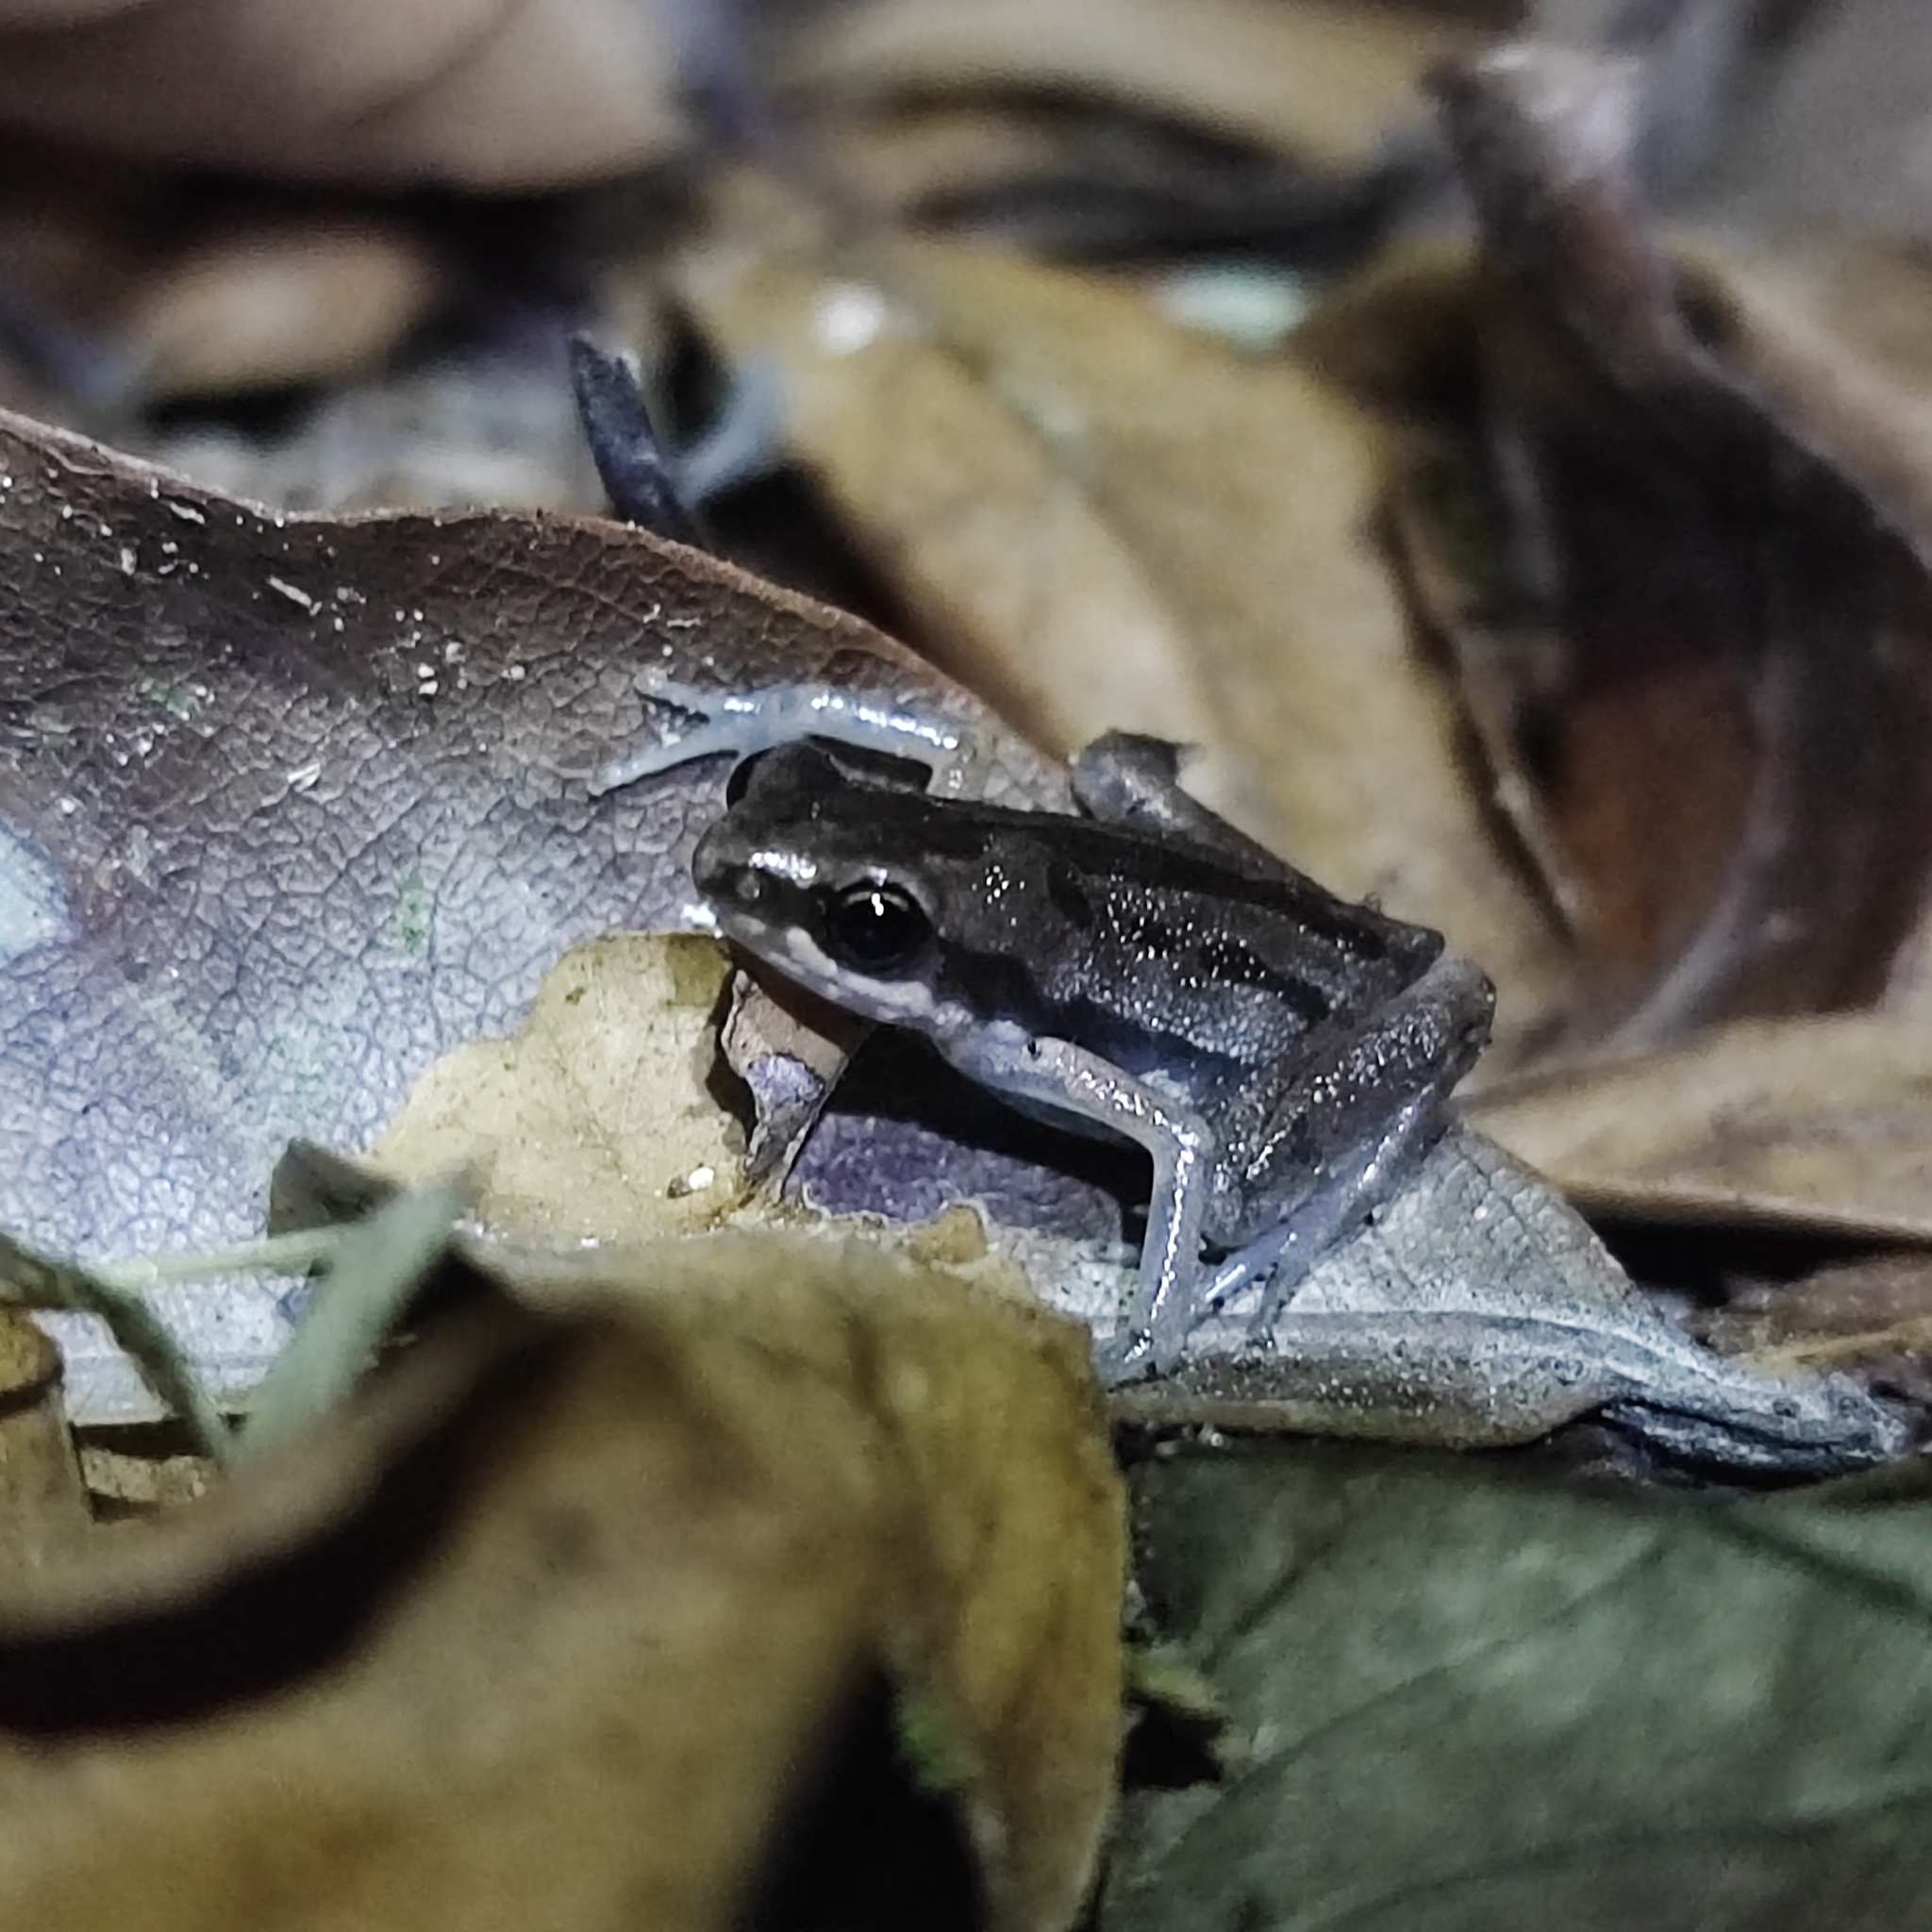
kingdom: Animalia
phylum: Chordata
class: Amphibia
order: Anura
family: Microhylidae
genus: Micryletta
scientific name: Micryletta lineata
